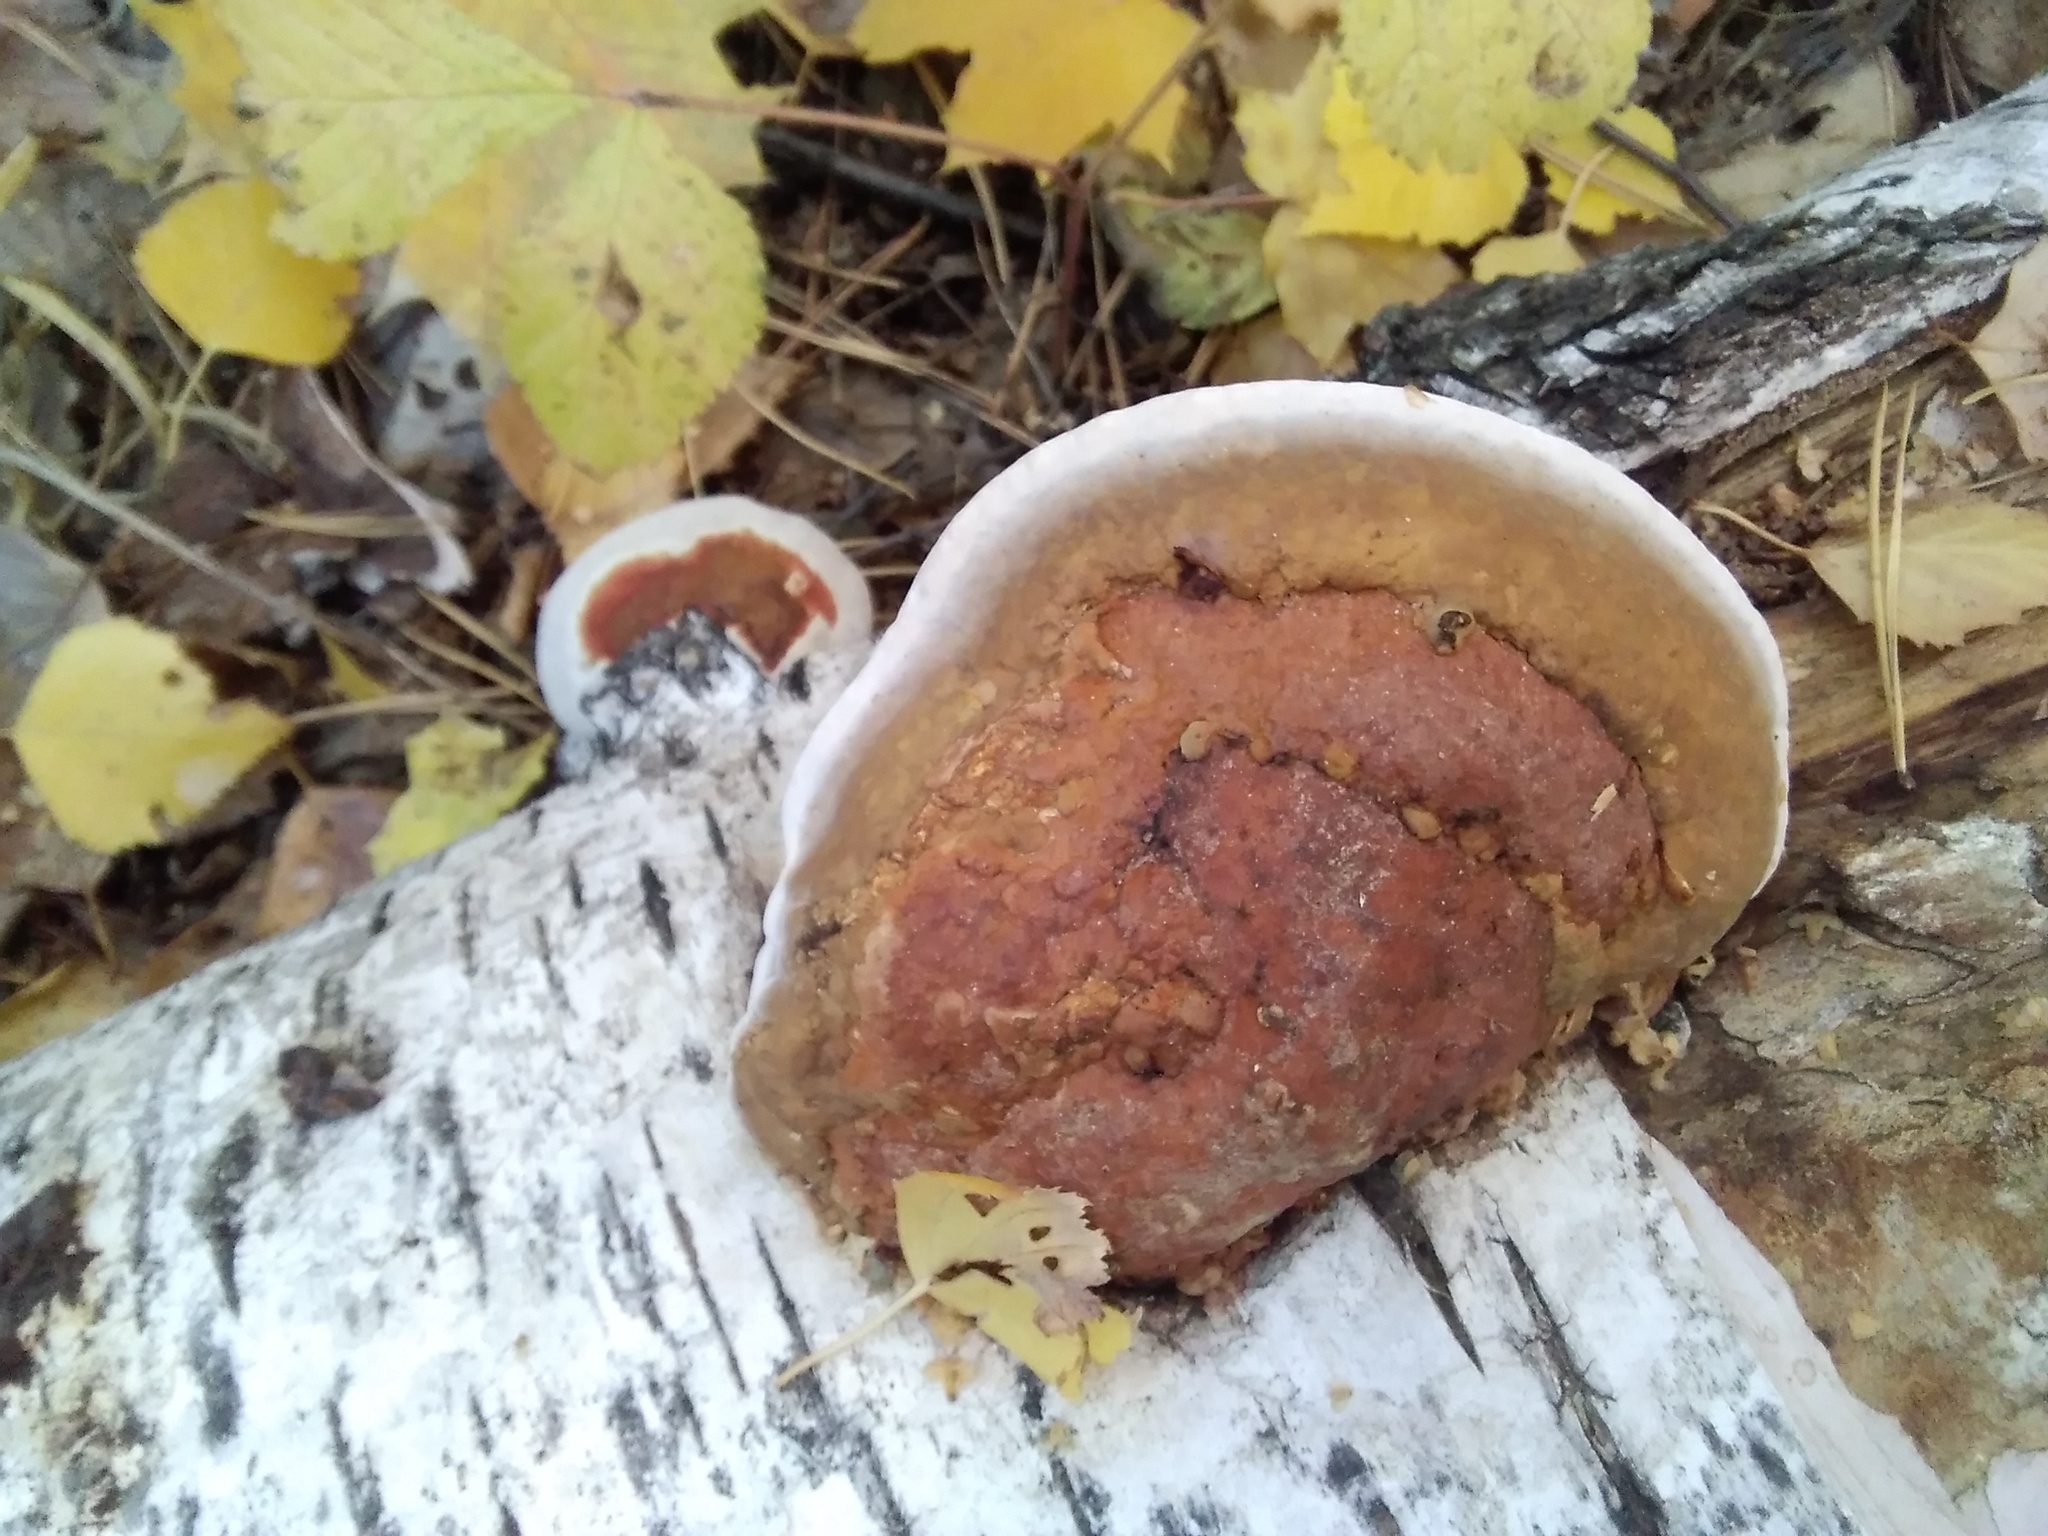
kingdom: Fungi
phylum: Basidiomycota
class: Agaricomycetes
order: Polyporales
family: Fomitopsidaceae
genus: Fomitopsis
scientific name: Fomitopsis pinicola
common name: Red-belted bracket
